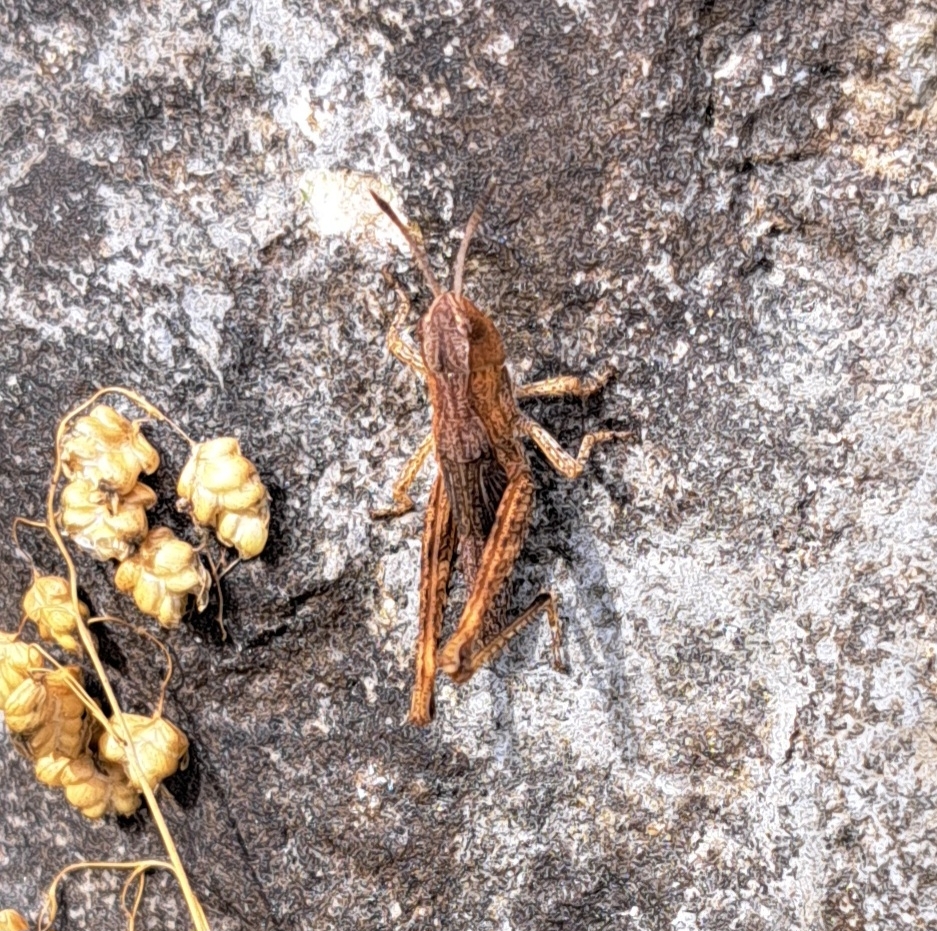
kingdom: Animalia
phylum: Arthropoda
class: Insecta
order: Orthoptera
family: Acrididae
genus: Gomphocerippus
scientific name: Gomphocerippus rufus
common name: Rufous grasshopper
